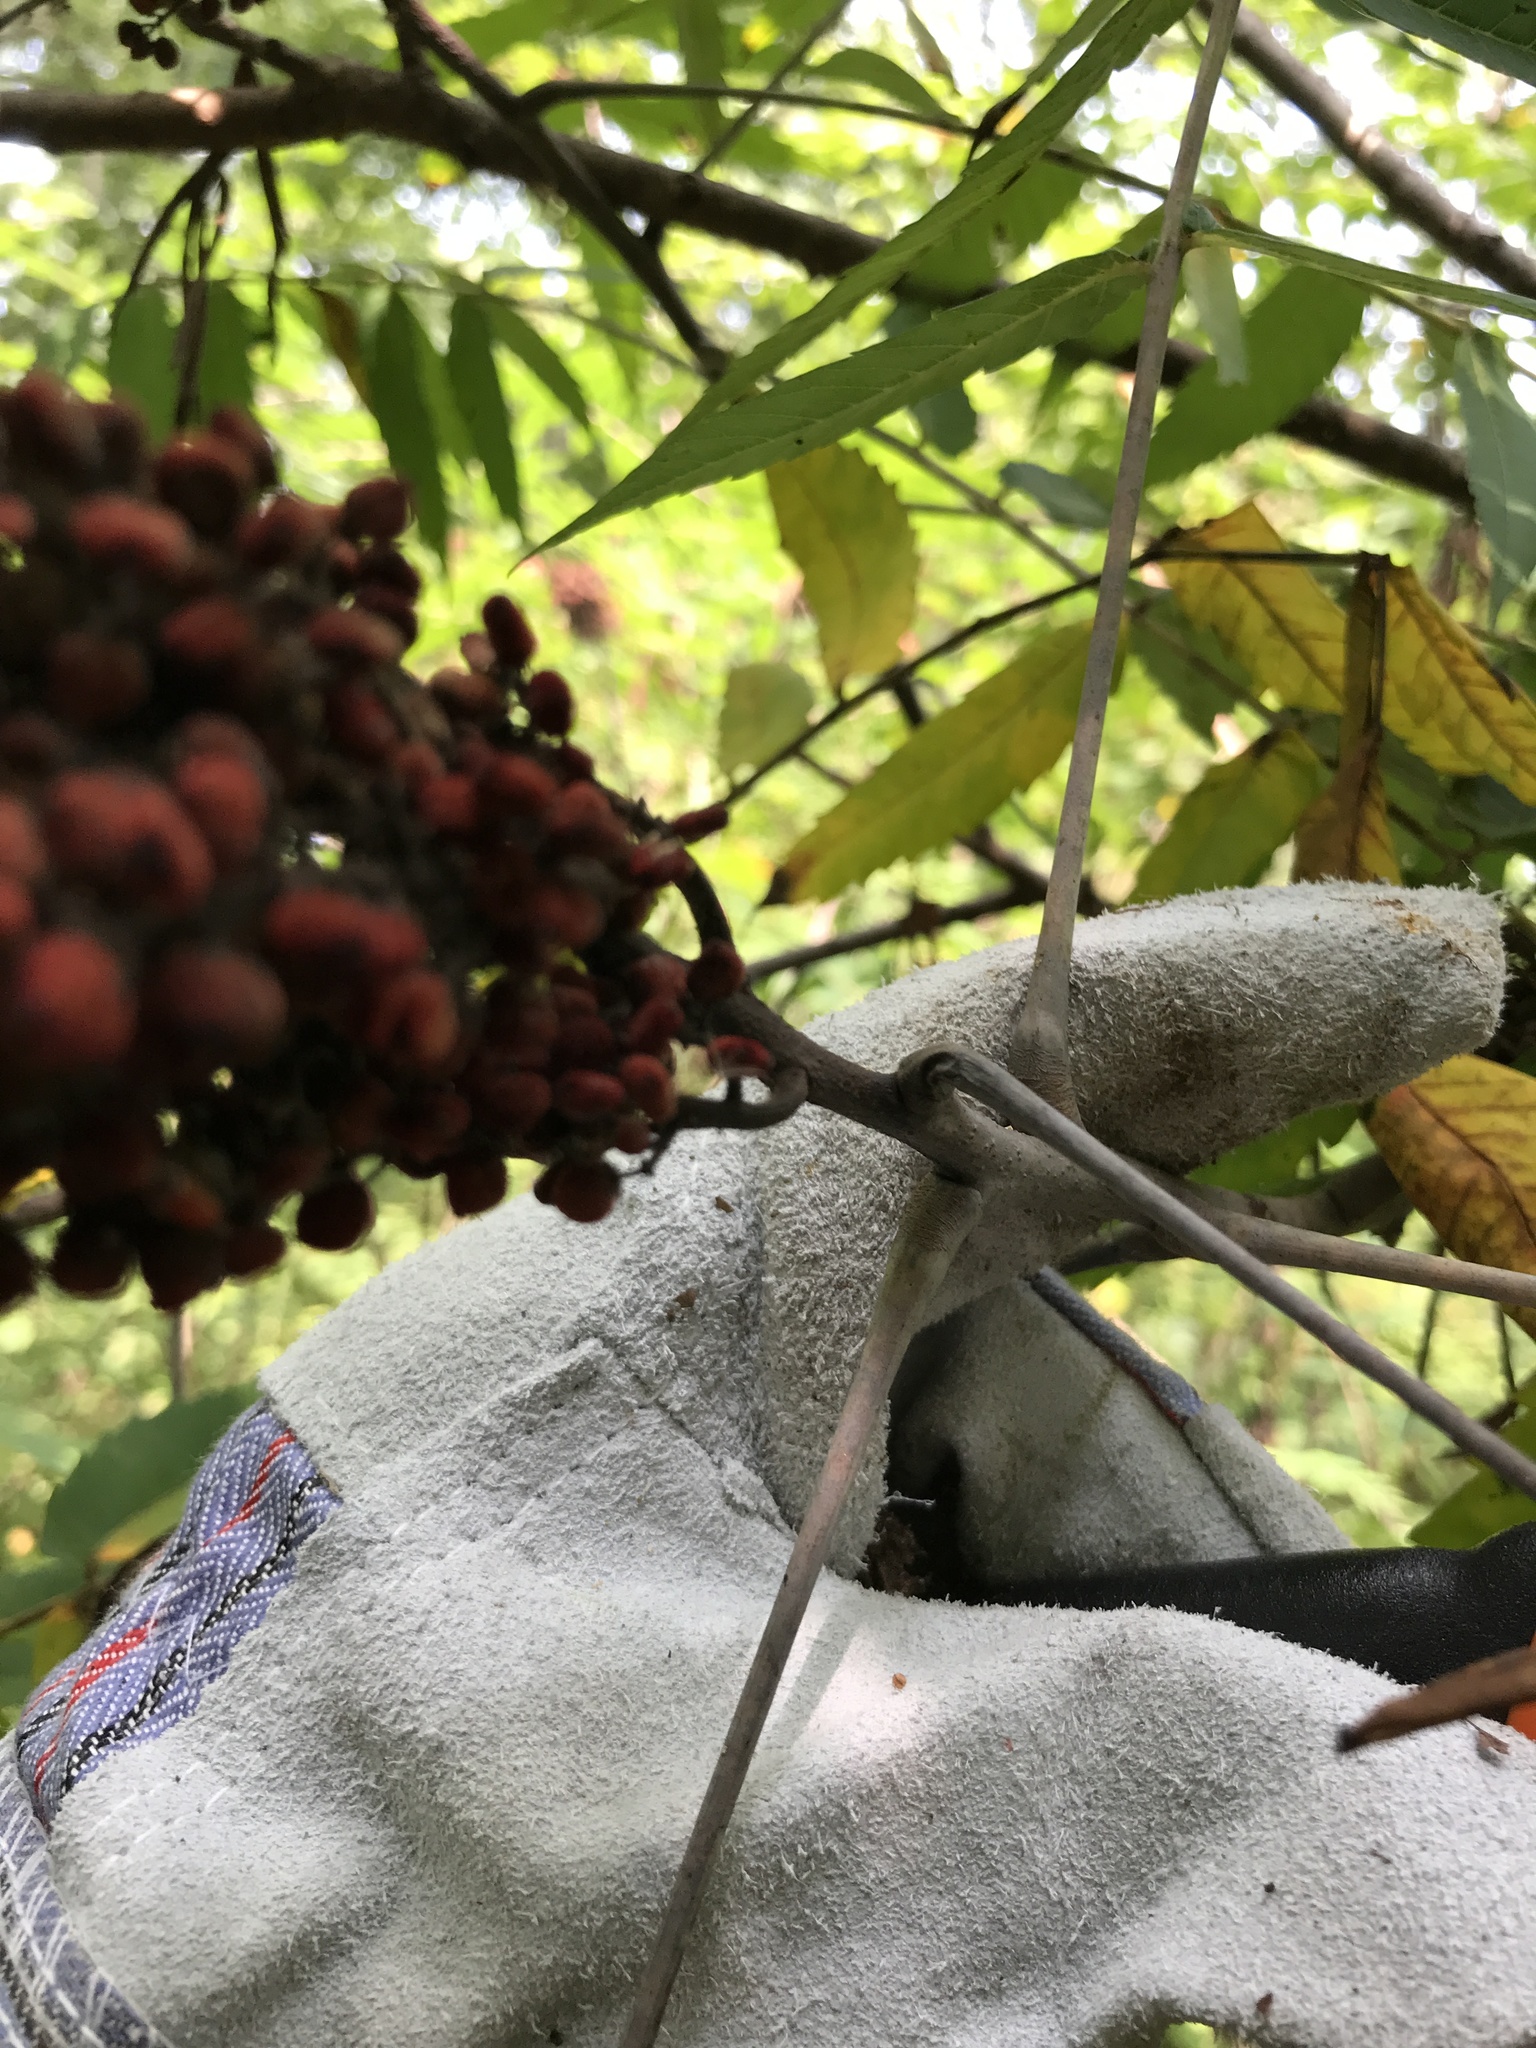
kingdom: Plantae
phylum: Tracheophyta
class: Magnoliopsida
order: Sapindales
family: Anacardiaceae
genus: Rhus
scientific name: Rhus glabra
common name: Scarlet sumac
